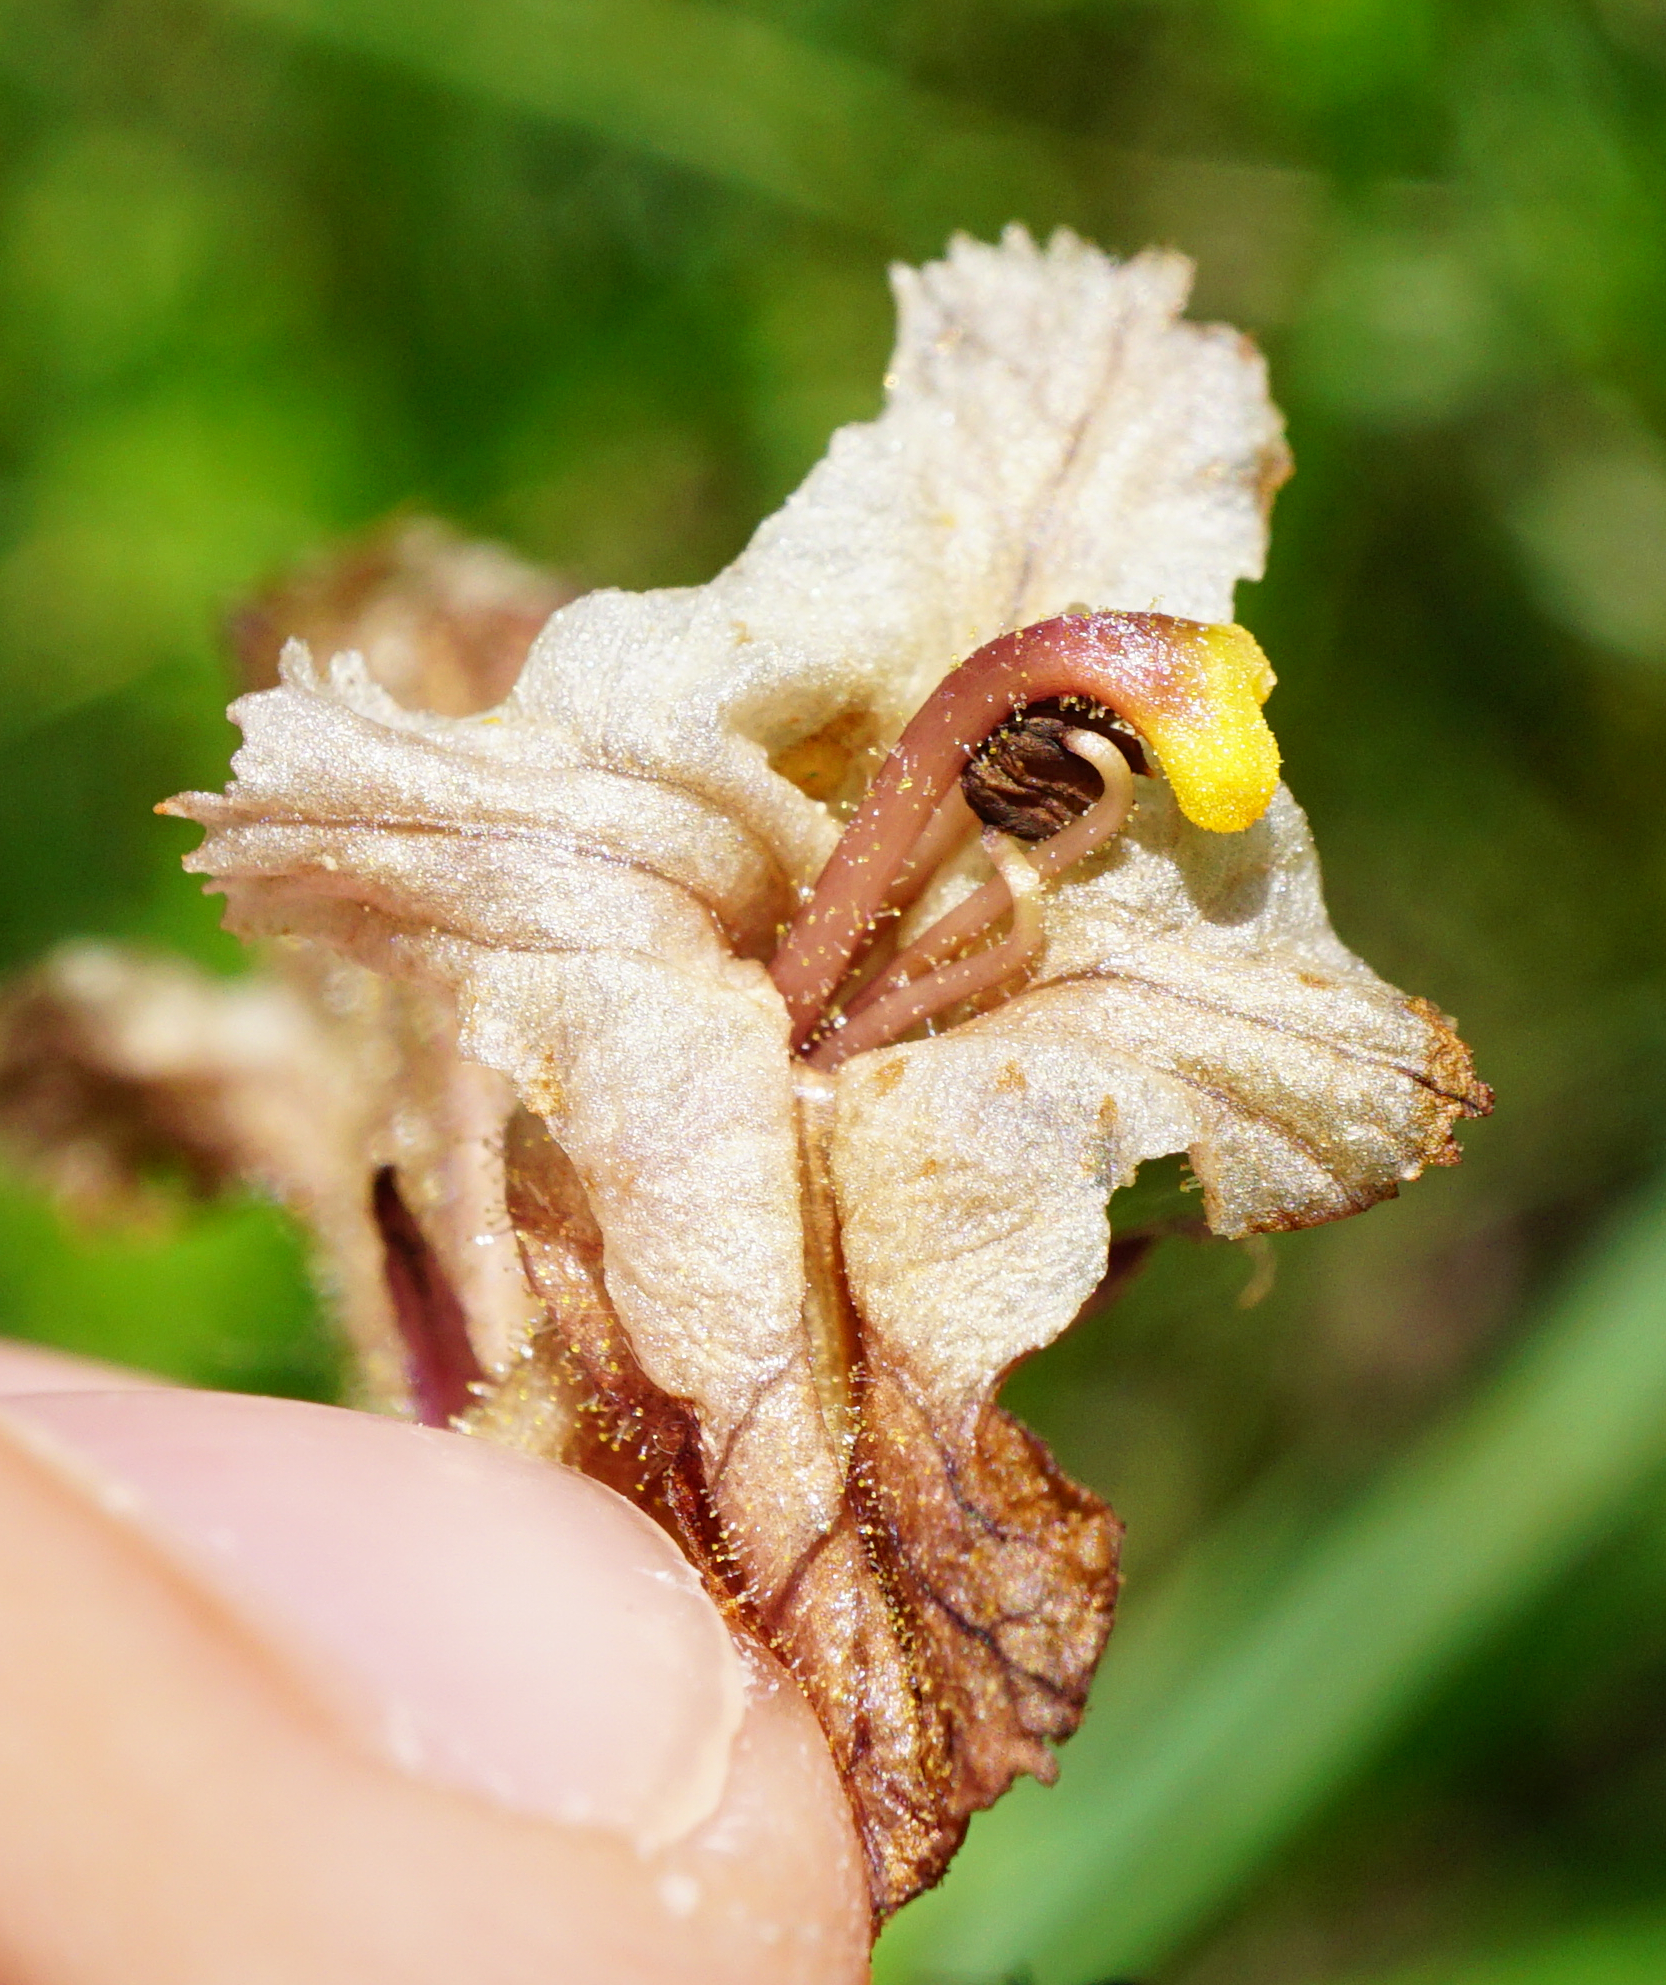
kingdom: Plantae
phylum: Tracheophyta
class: Magnoliopsida
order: Lamiales
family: Orobanchaceae
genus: Orobanche
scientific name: Orobanche lutea
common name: Yellow broomrape
